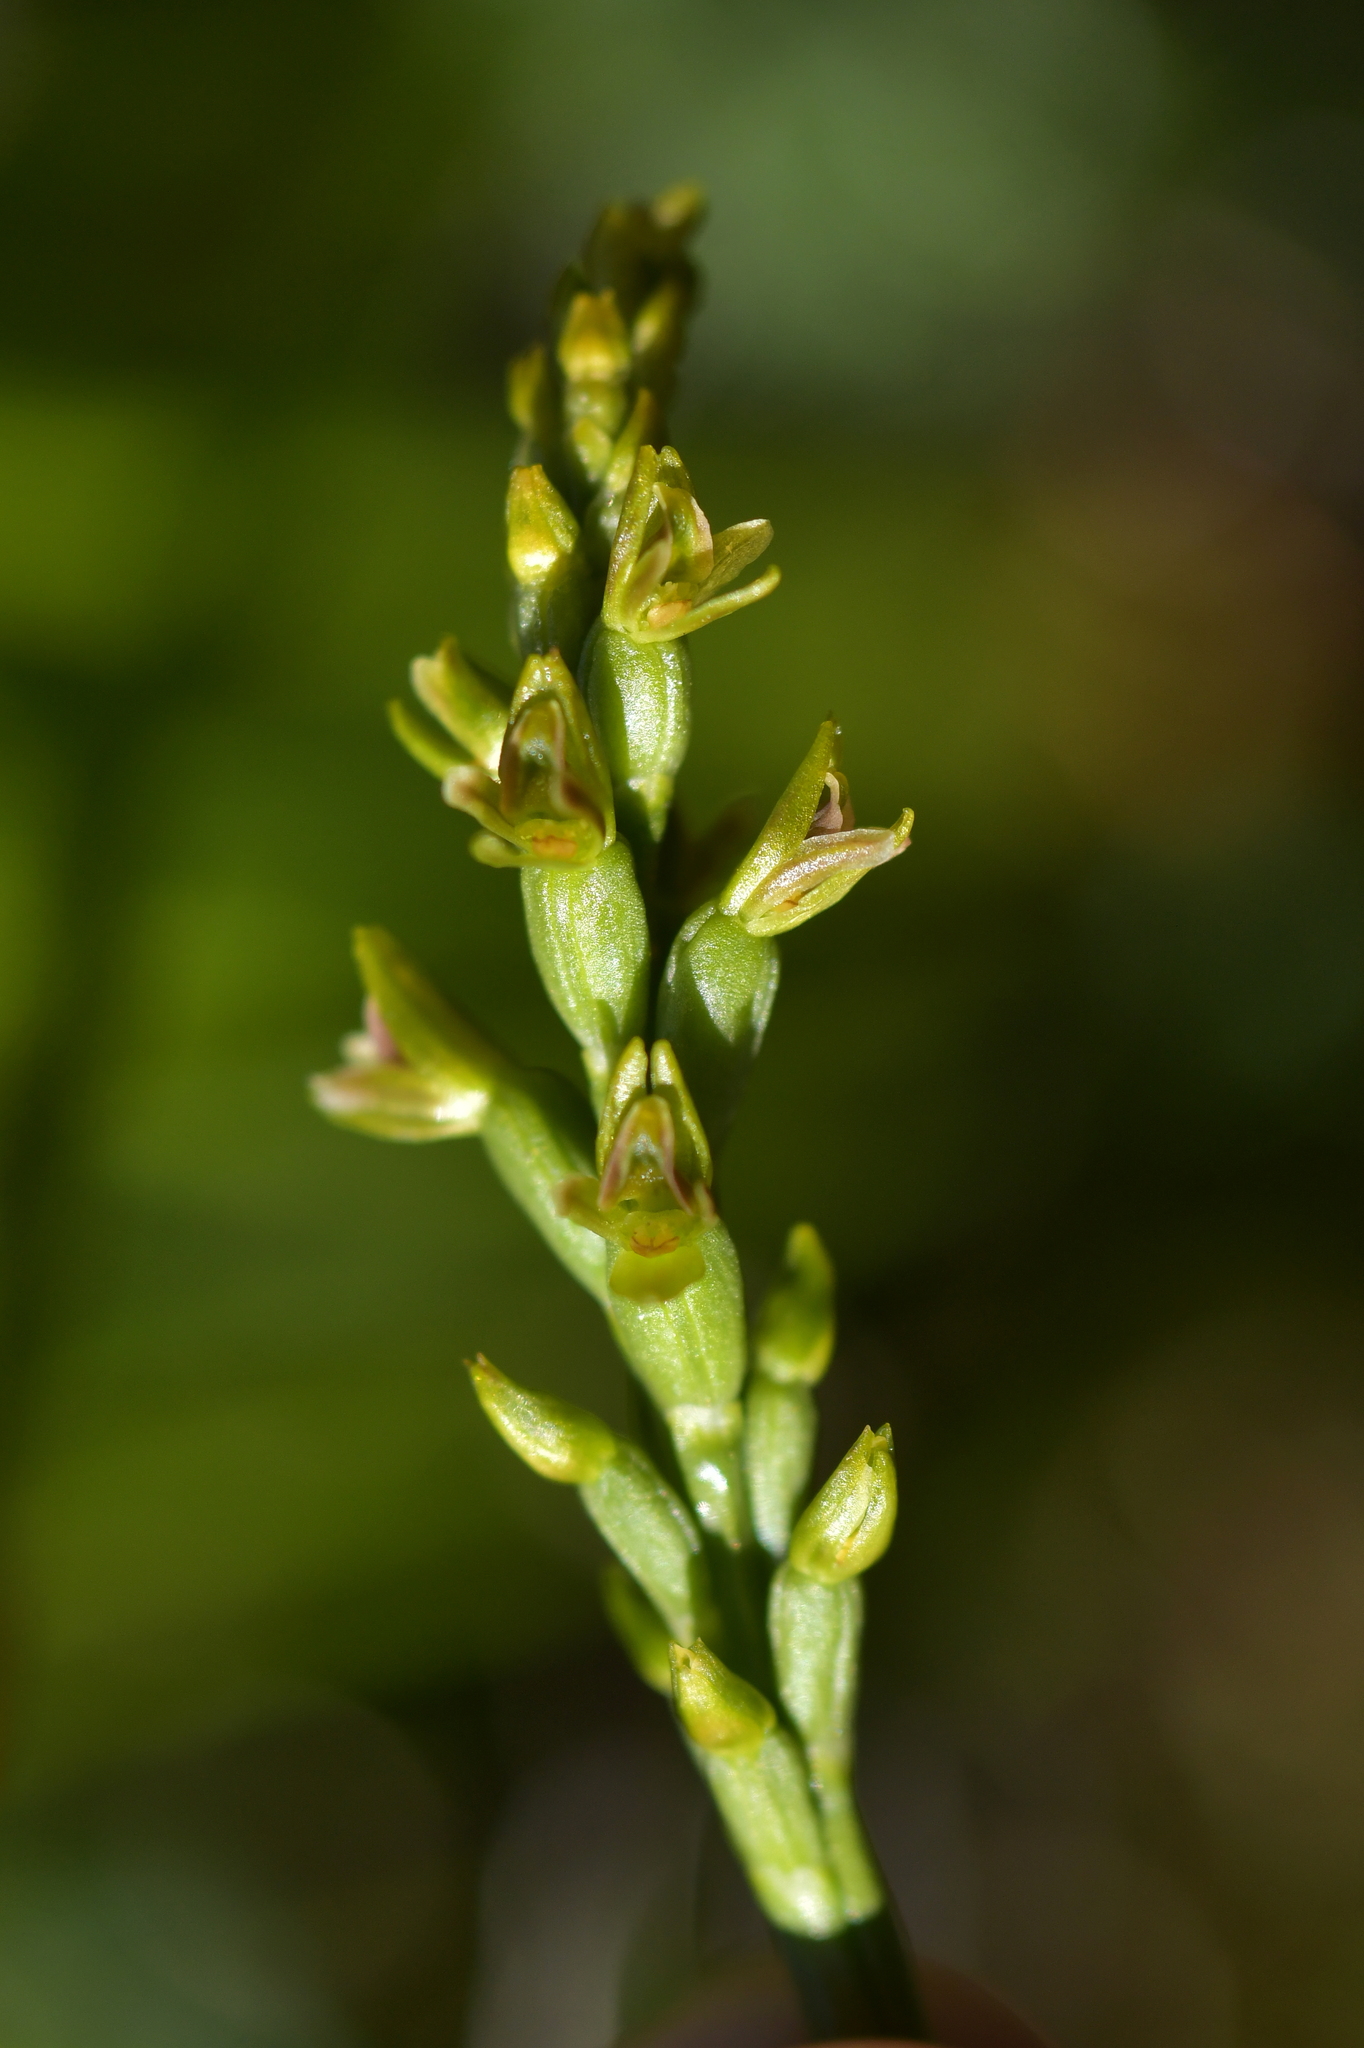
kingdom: Plantae
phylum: Tracheophyta
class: Liliopsida
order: Asparagales
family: Orchidaceae
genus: Prasophyllum
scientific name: Prasophyllum colensoi
